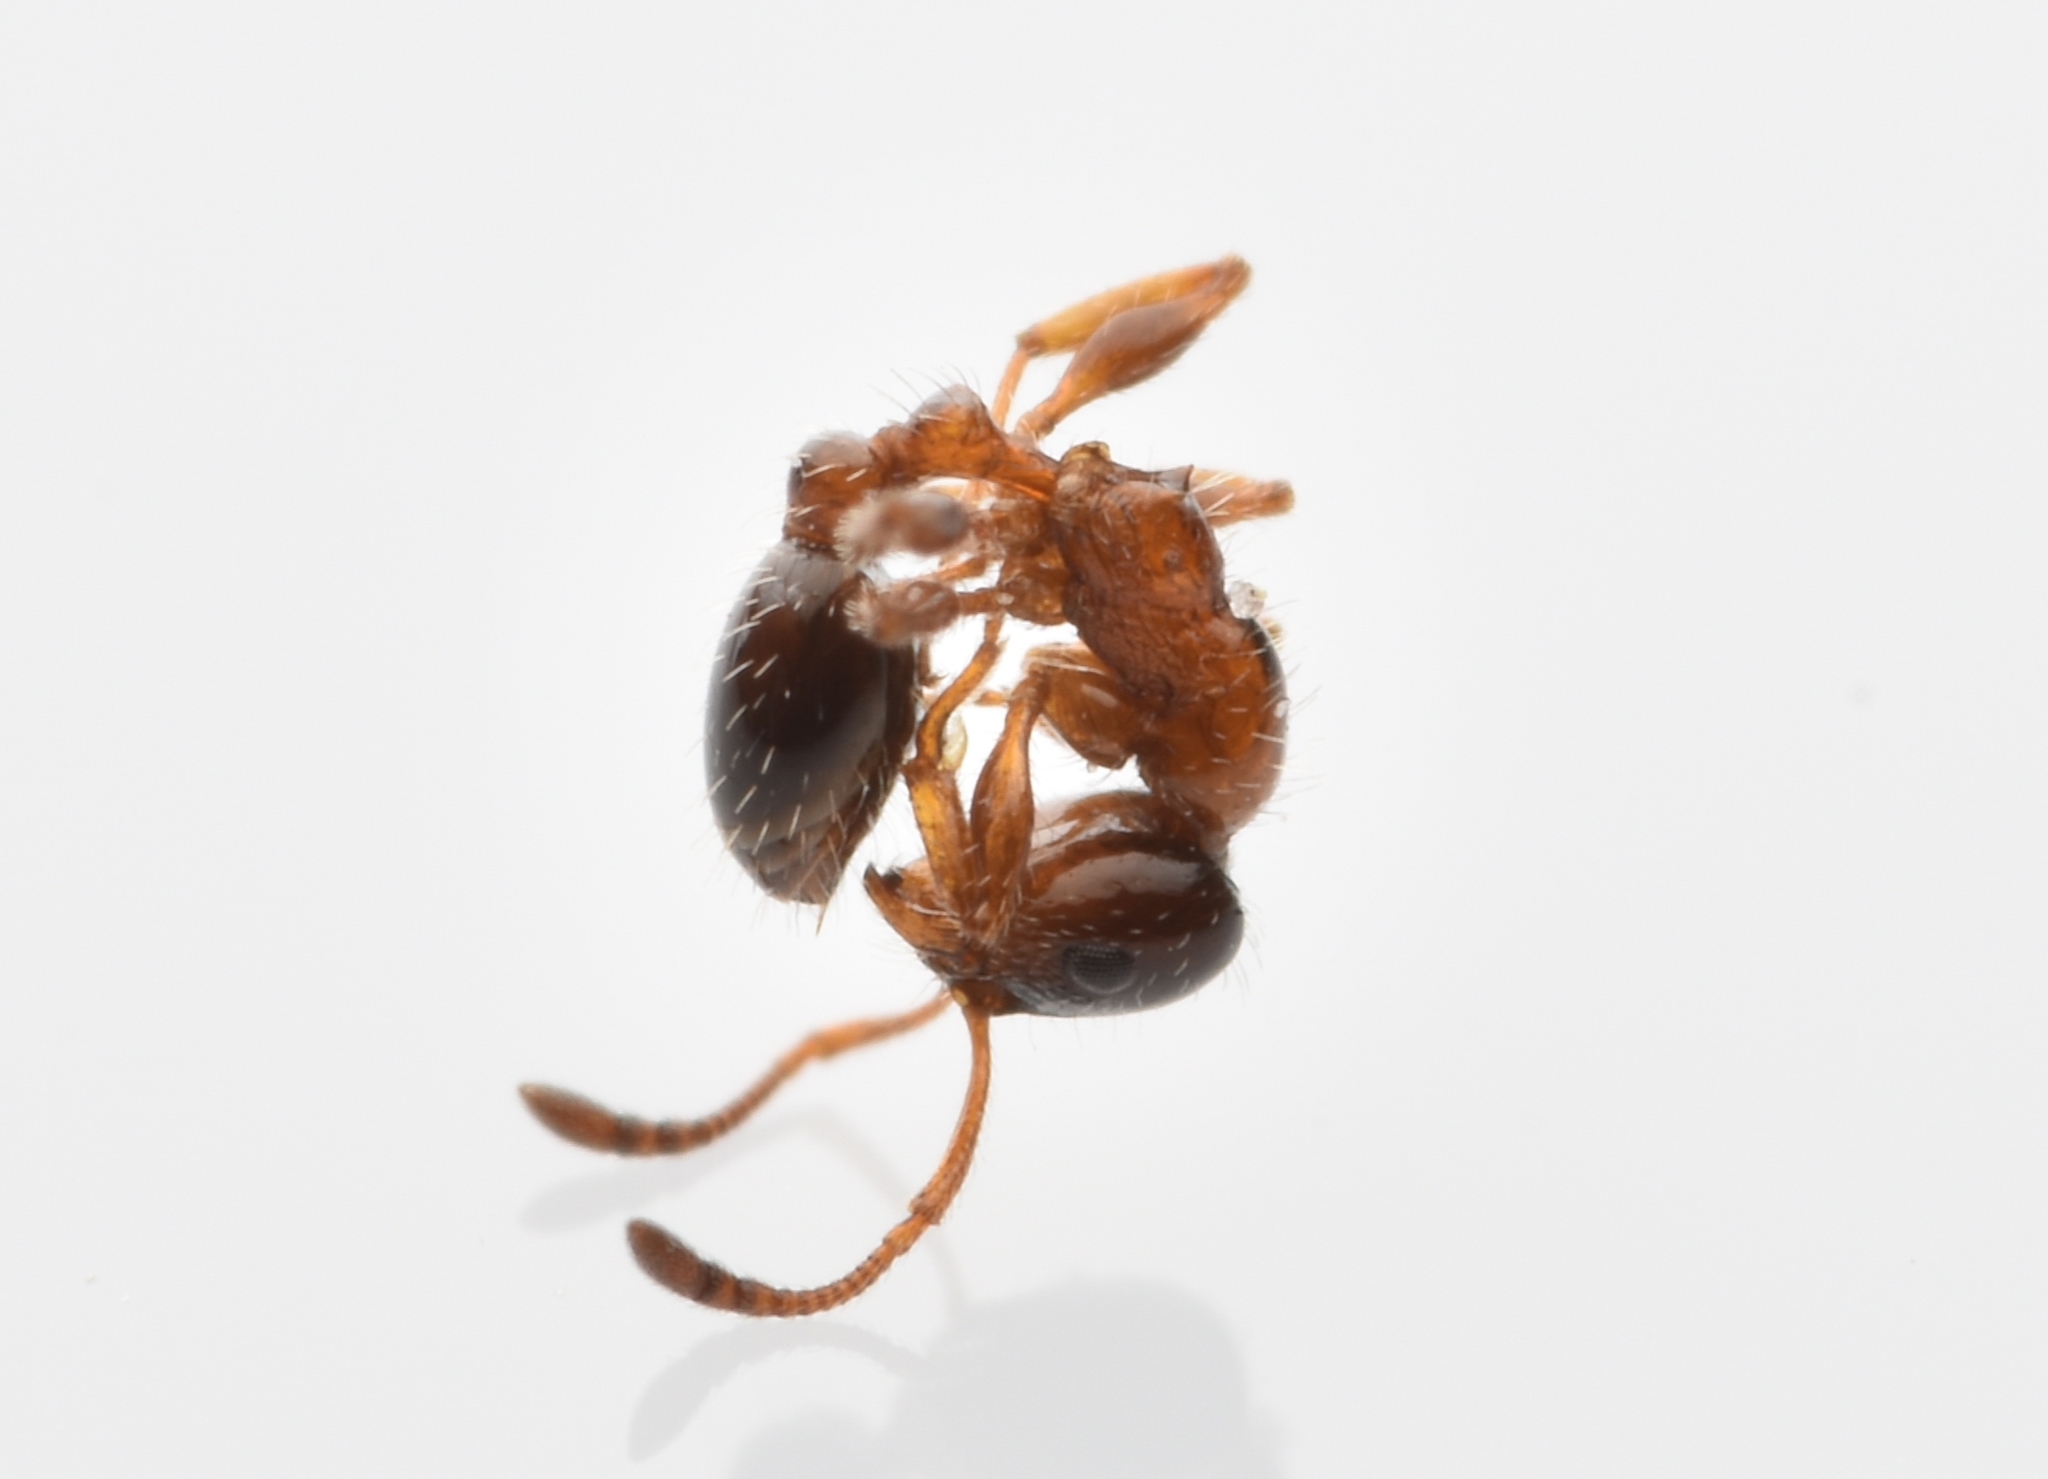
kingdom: Animalia
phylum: Arthropoda
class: Insecta
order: Hymenoptera
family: Formicidae
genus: Temnothorax
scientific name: Temnothorax pergandei
